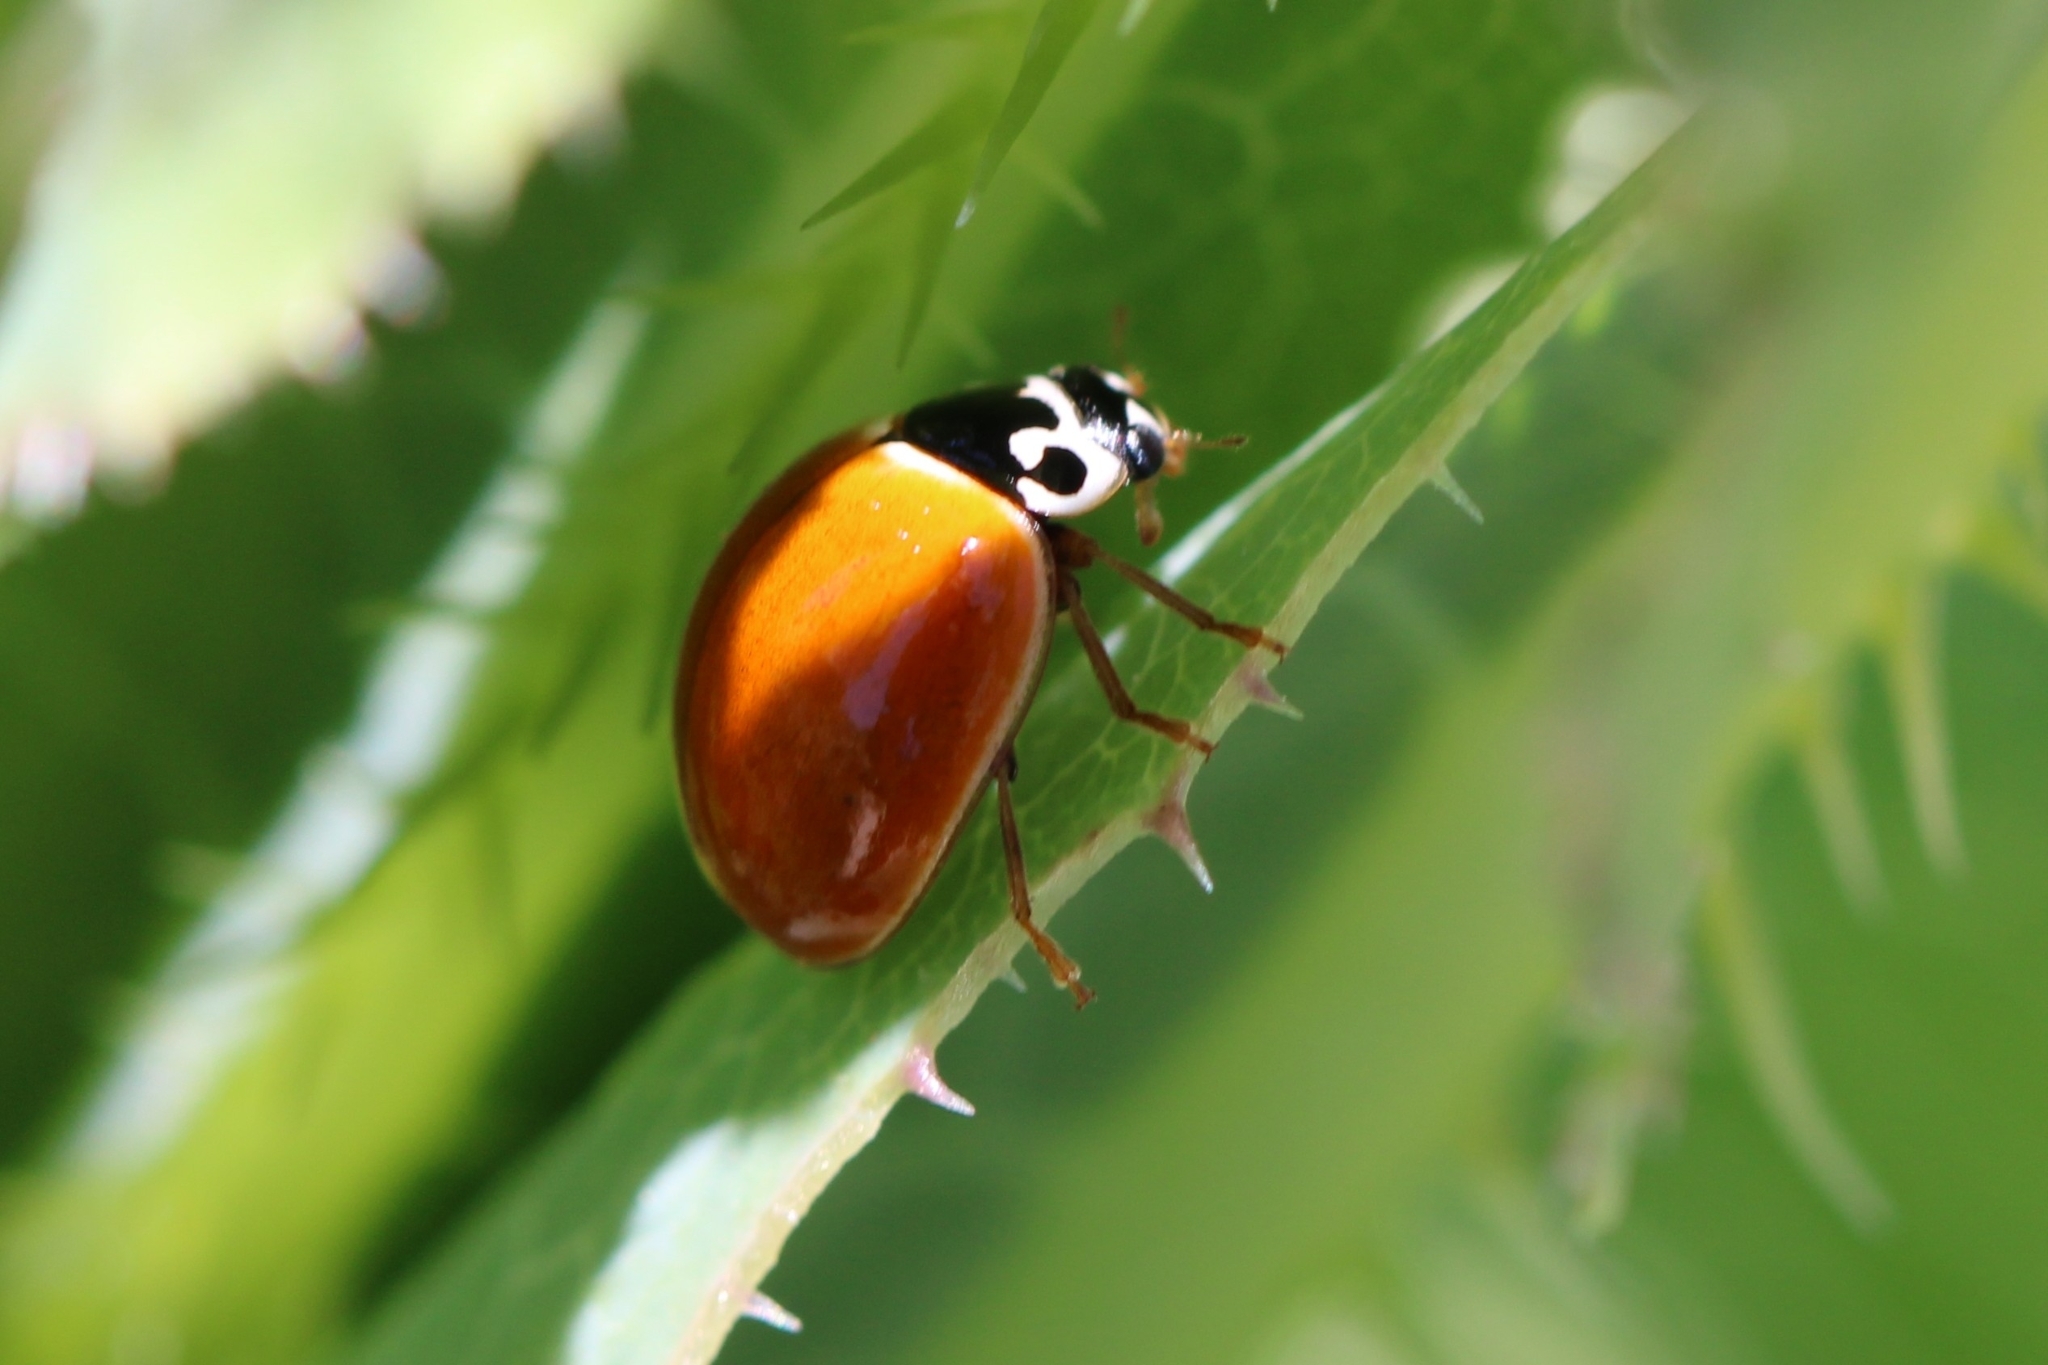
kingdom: Animalia
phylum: Arthropoda
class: Insecta
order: Coleoptera
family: Coccinellidae
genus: Cycloneda
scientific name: Cycloneda munda
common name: Polished lady beetle
